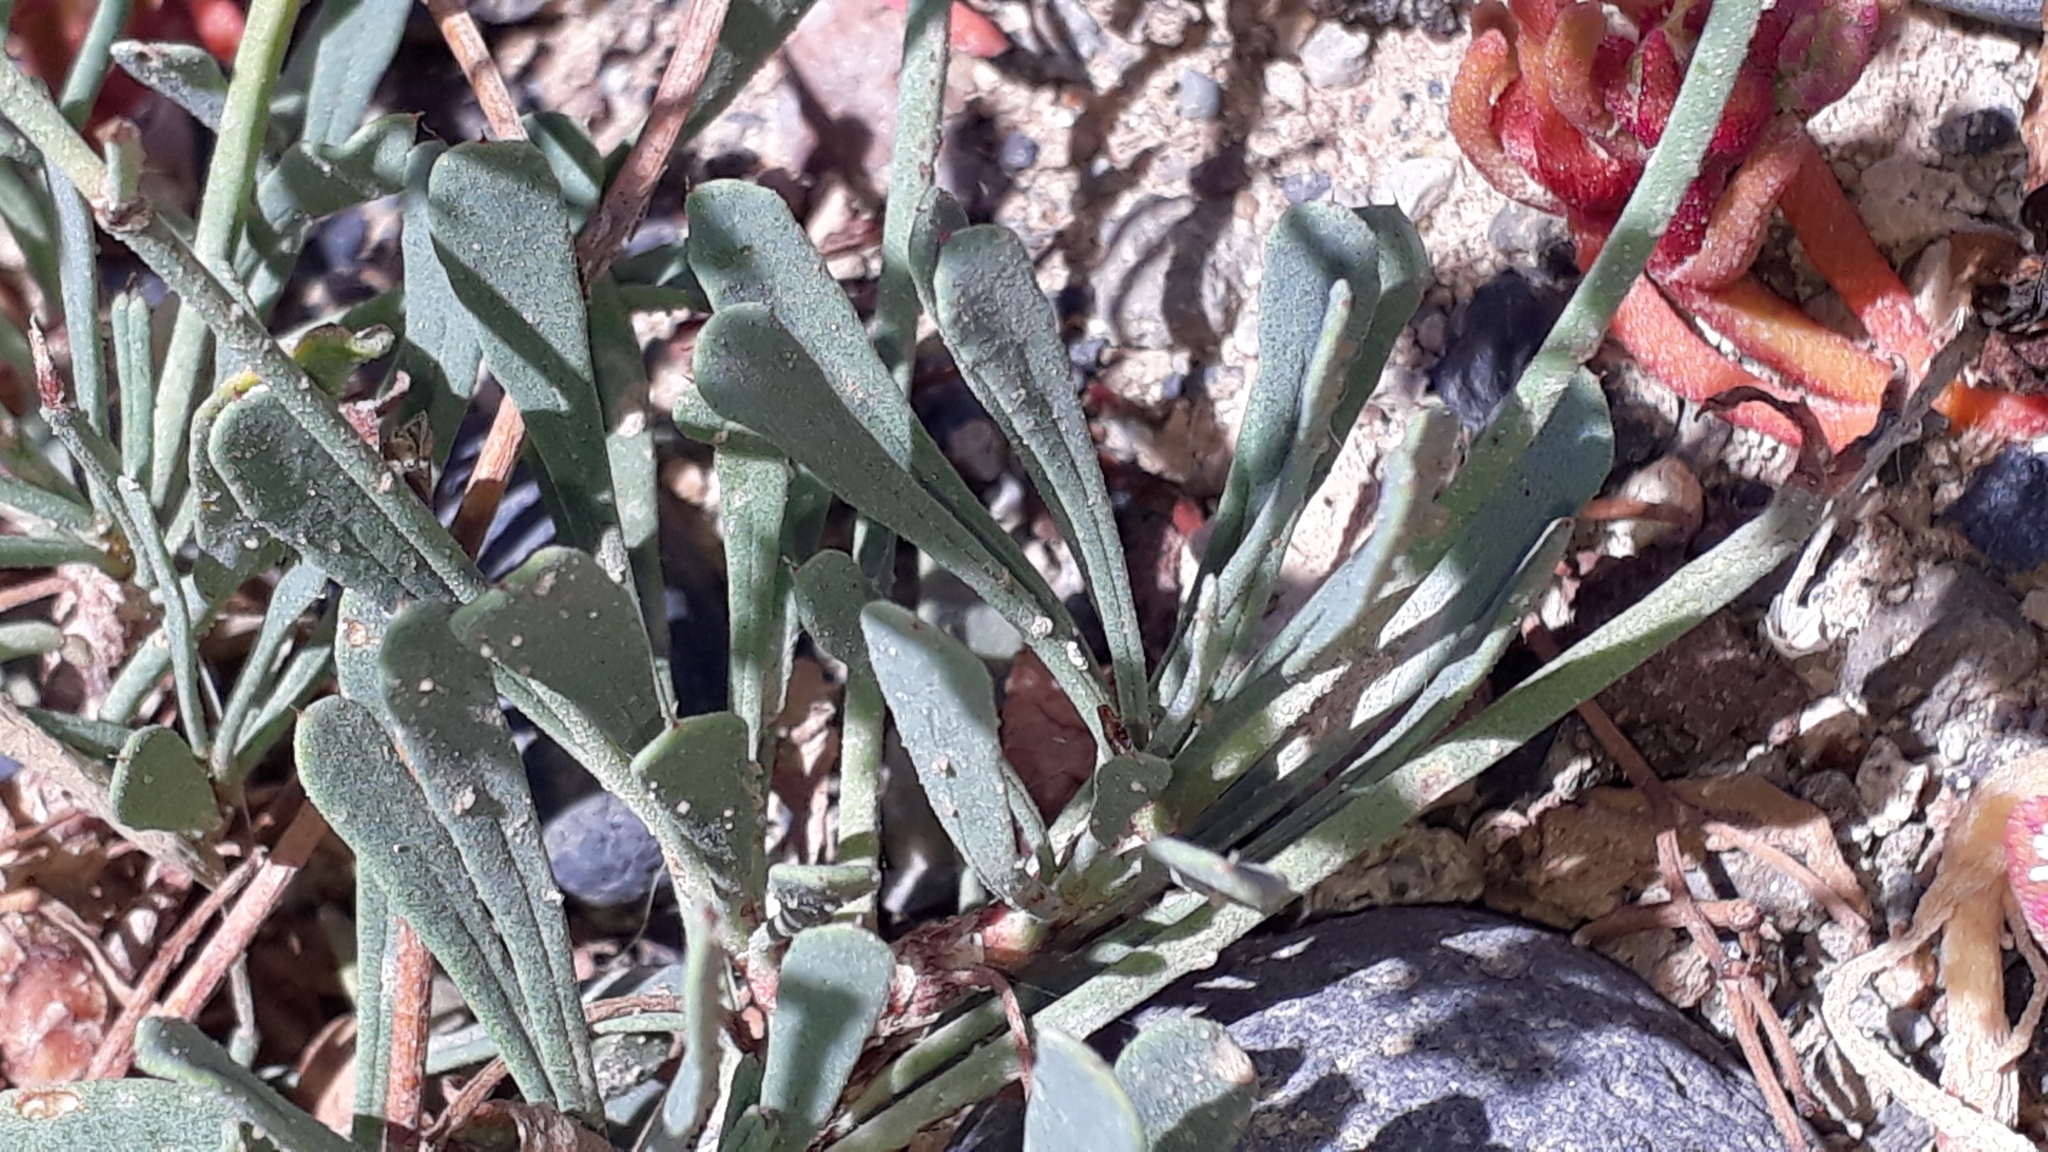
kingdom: Plantae
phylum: Tracheophyta
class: Magnoliopsida
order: Caryophyllales
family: Plumbaginaceae
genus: Limonium
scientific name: Limonium pectinatum
